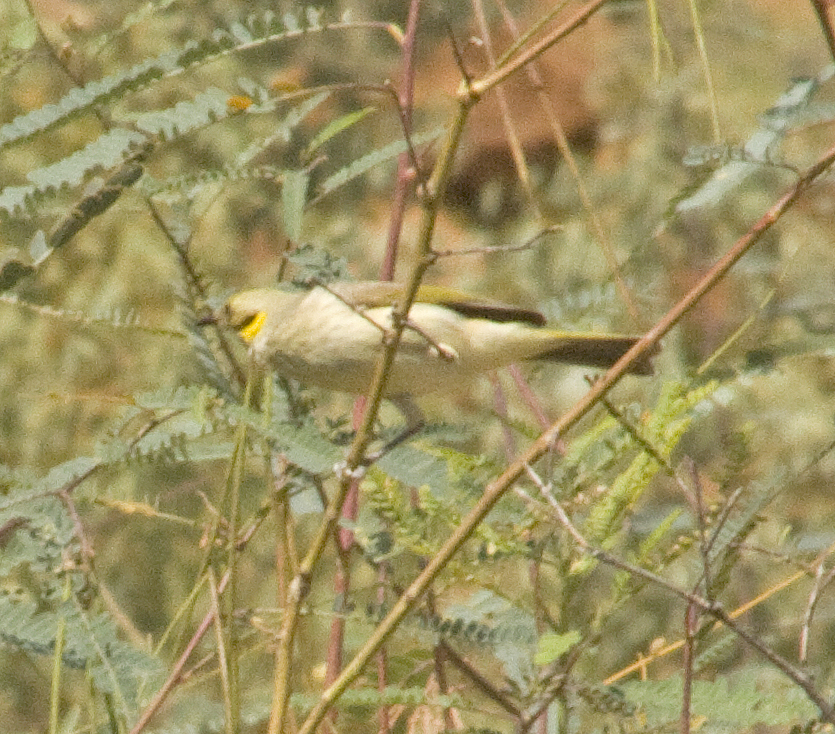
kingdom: Animalia
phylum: Chordata
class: Aves
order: Passeriformes
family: Meliphagidae
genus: Ptilotula
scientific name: Ptilotula plumula
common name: Grey-fronted honeyeater
